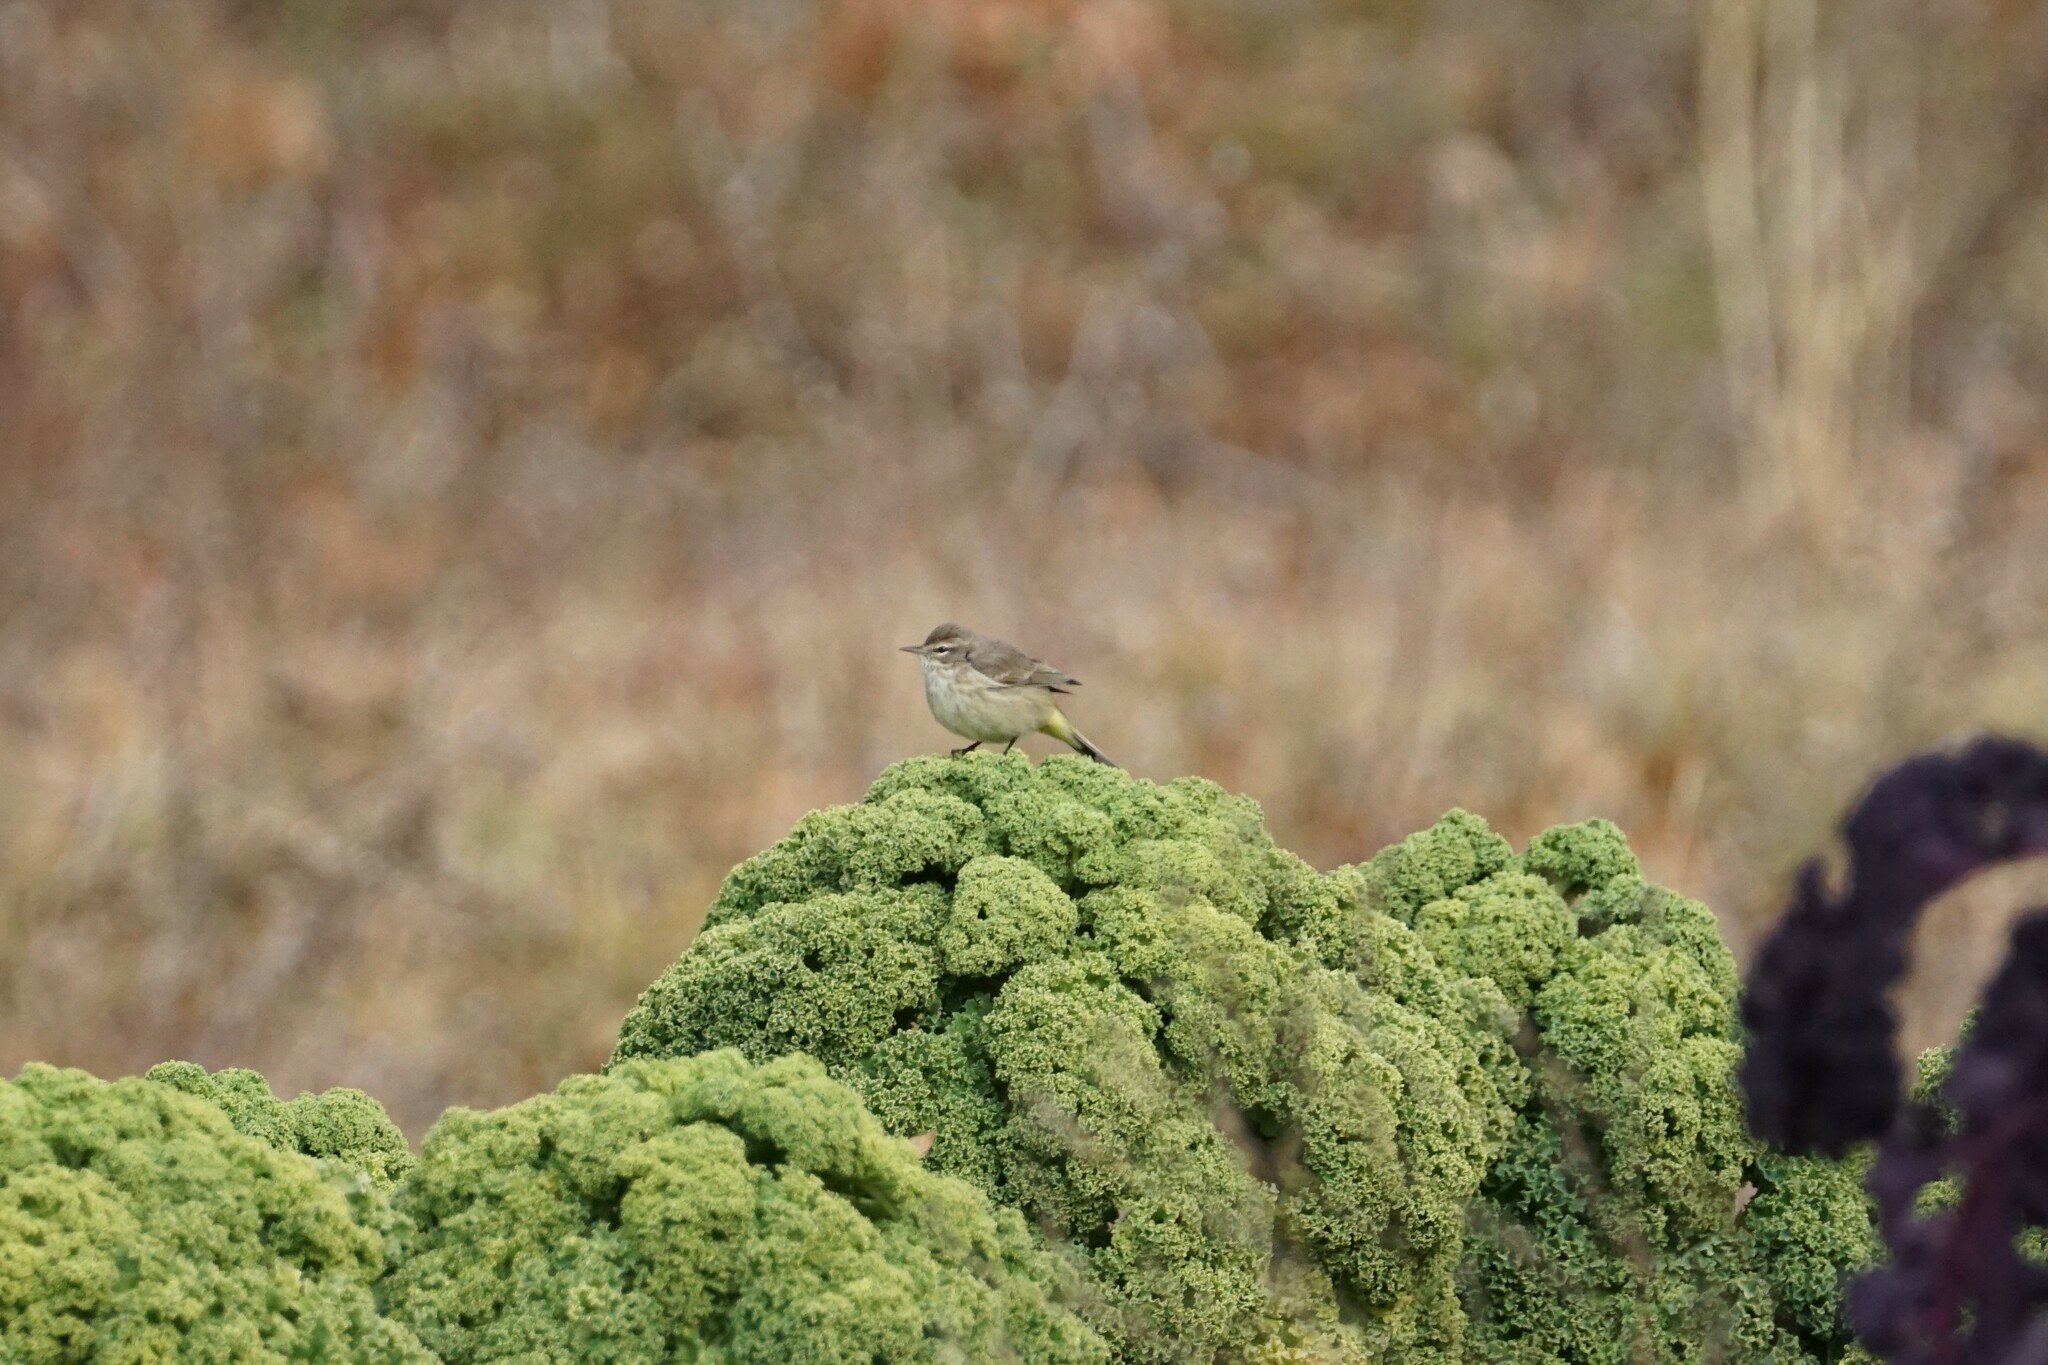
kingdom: Animalia
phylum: Chordata
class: Aves
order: Passeriformes
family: Parulidae
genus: Setophaga
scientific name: Setophaga palmarum
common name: Palm warbler
